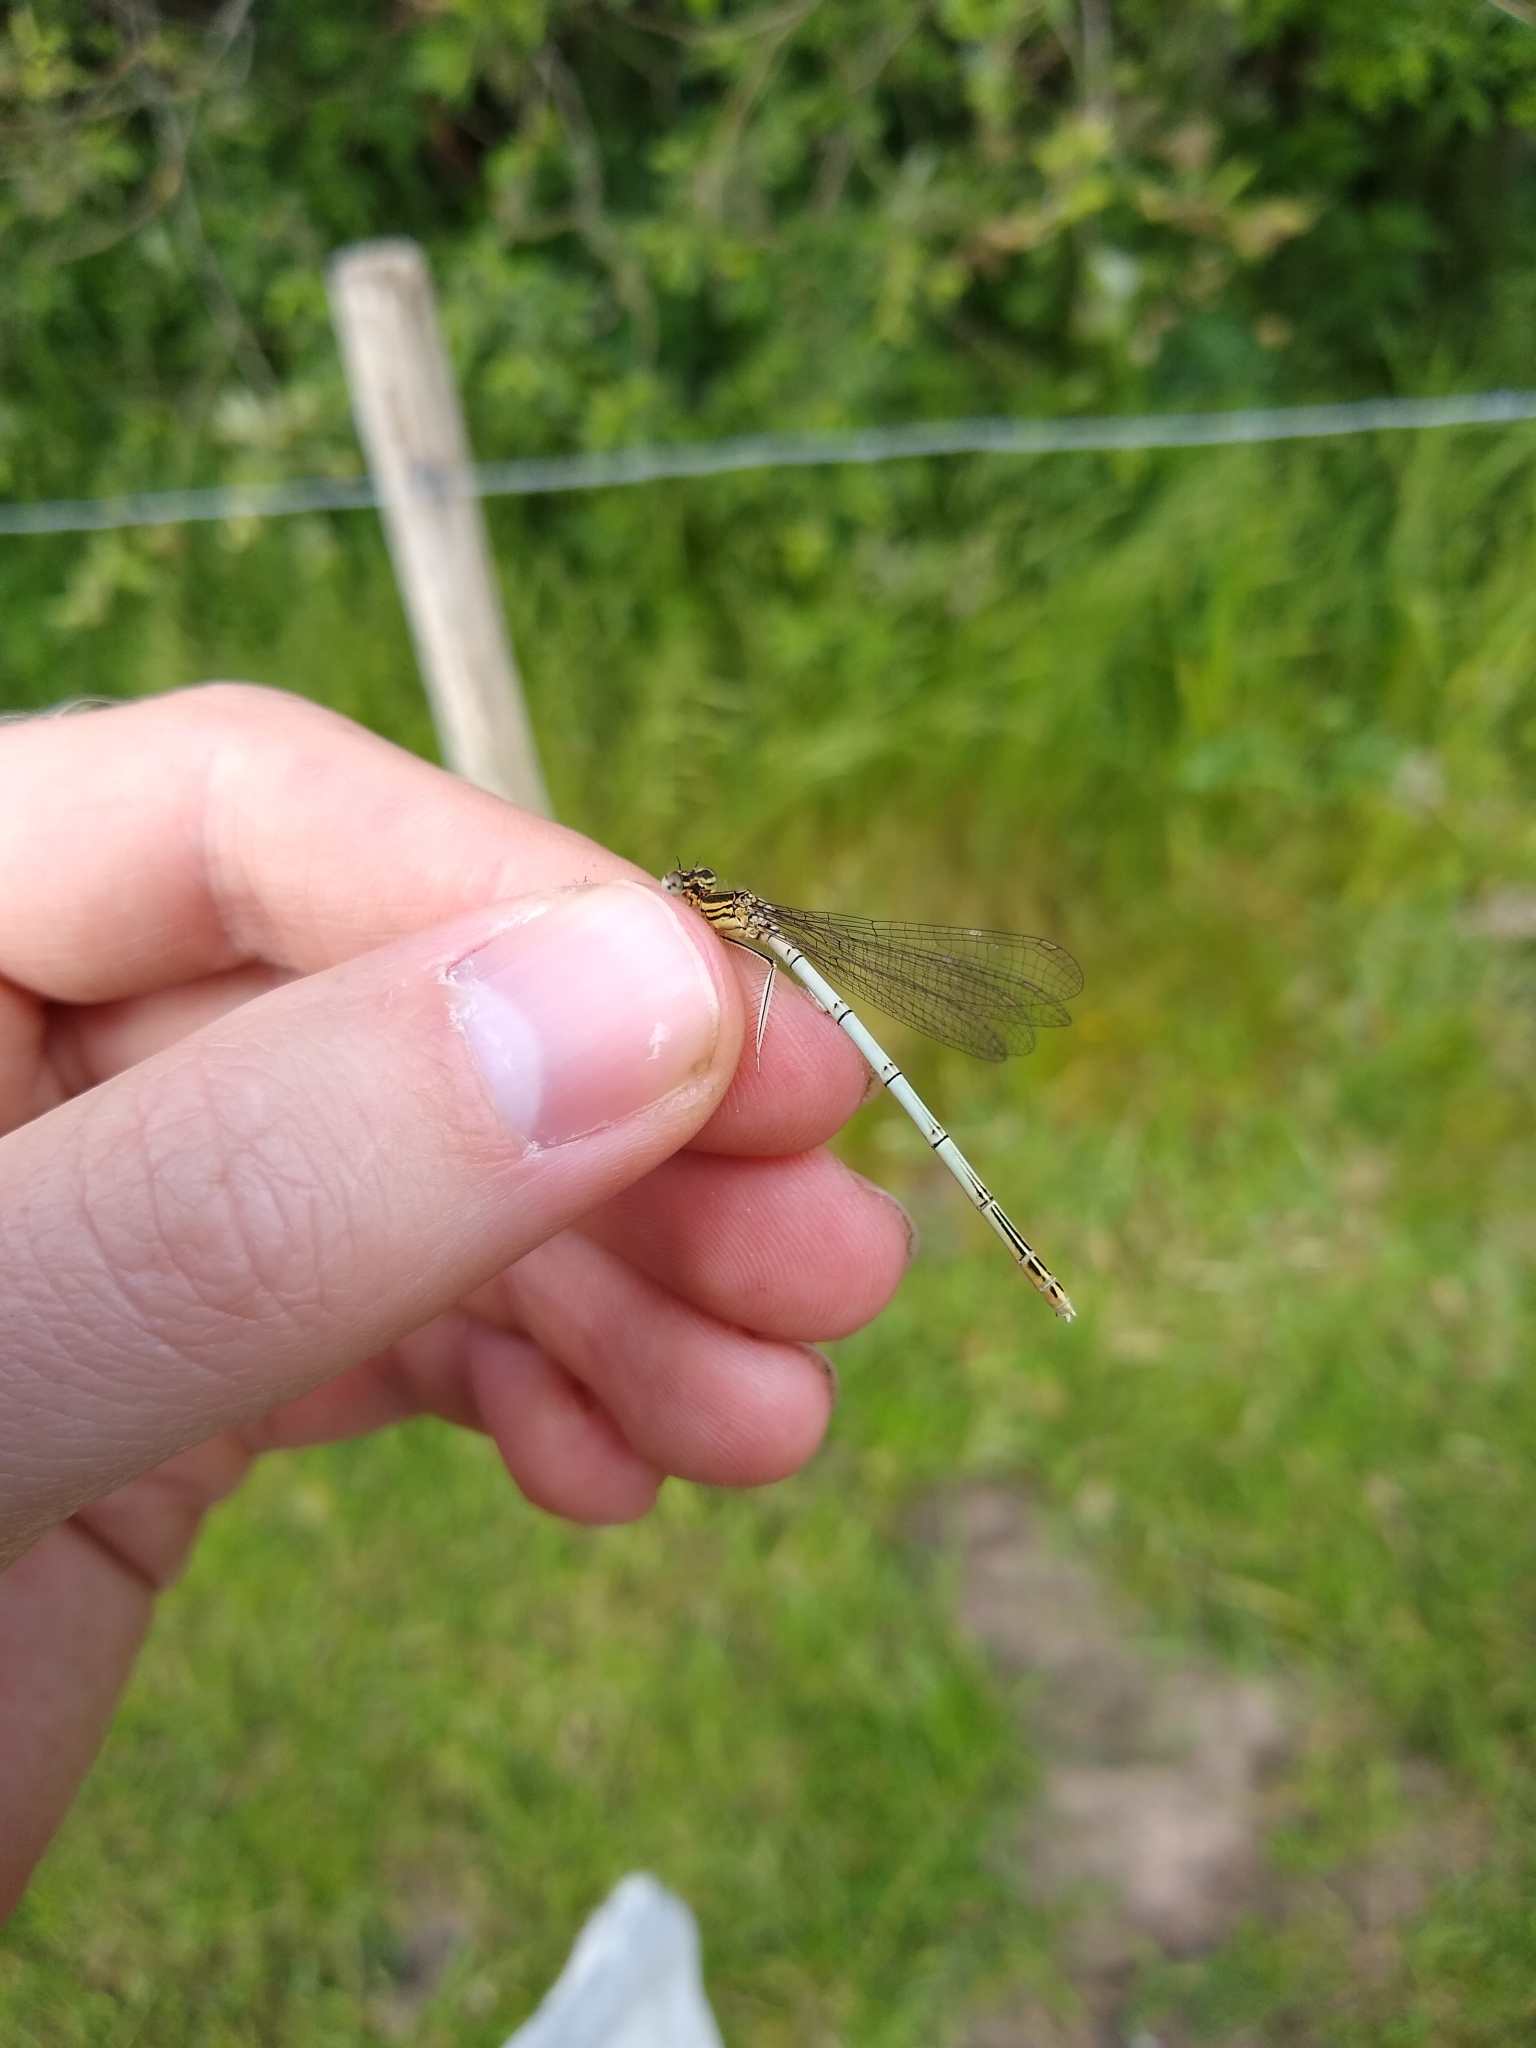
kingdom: Animalia
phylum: Arthropoda
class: Insecta
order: Odonata
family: Platycnemididae
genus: Platycnemis
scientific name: Platycnemis pennipes
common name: White-legged damselfly
